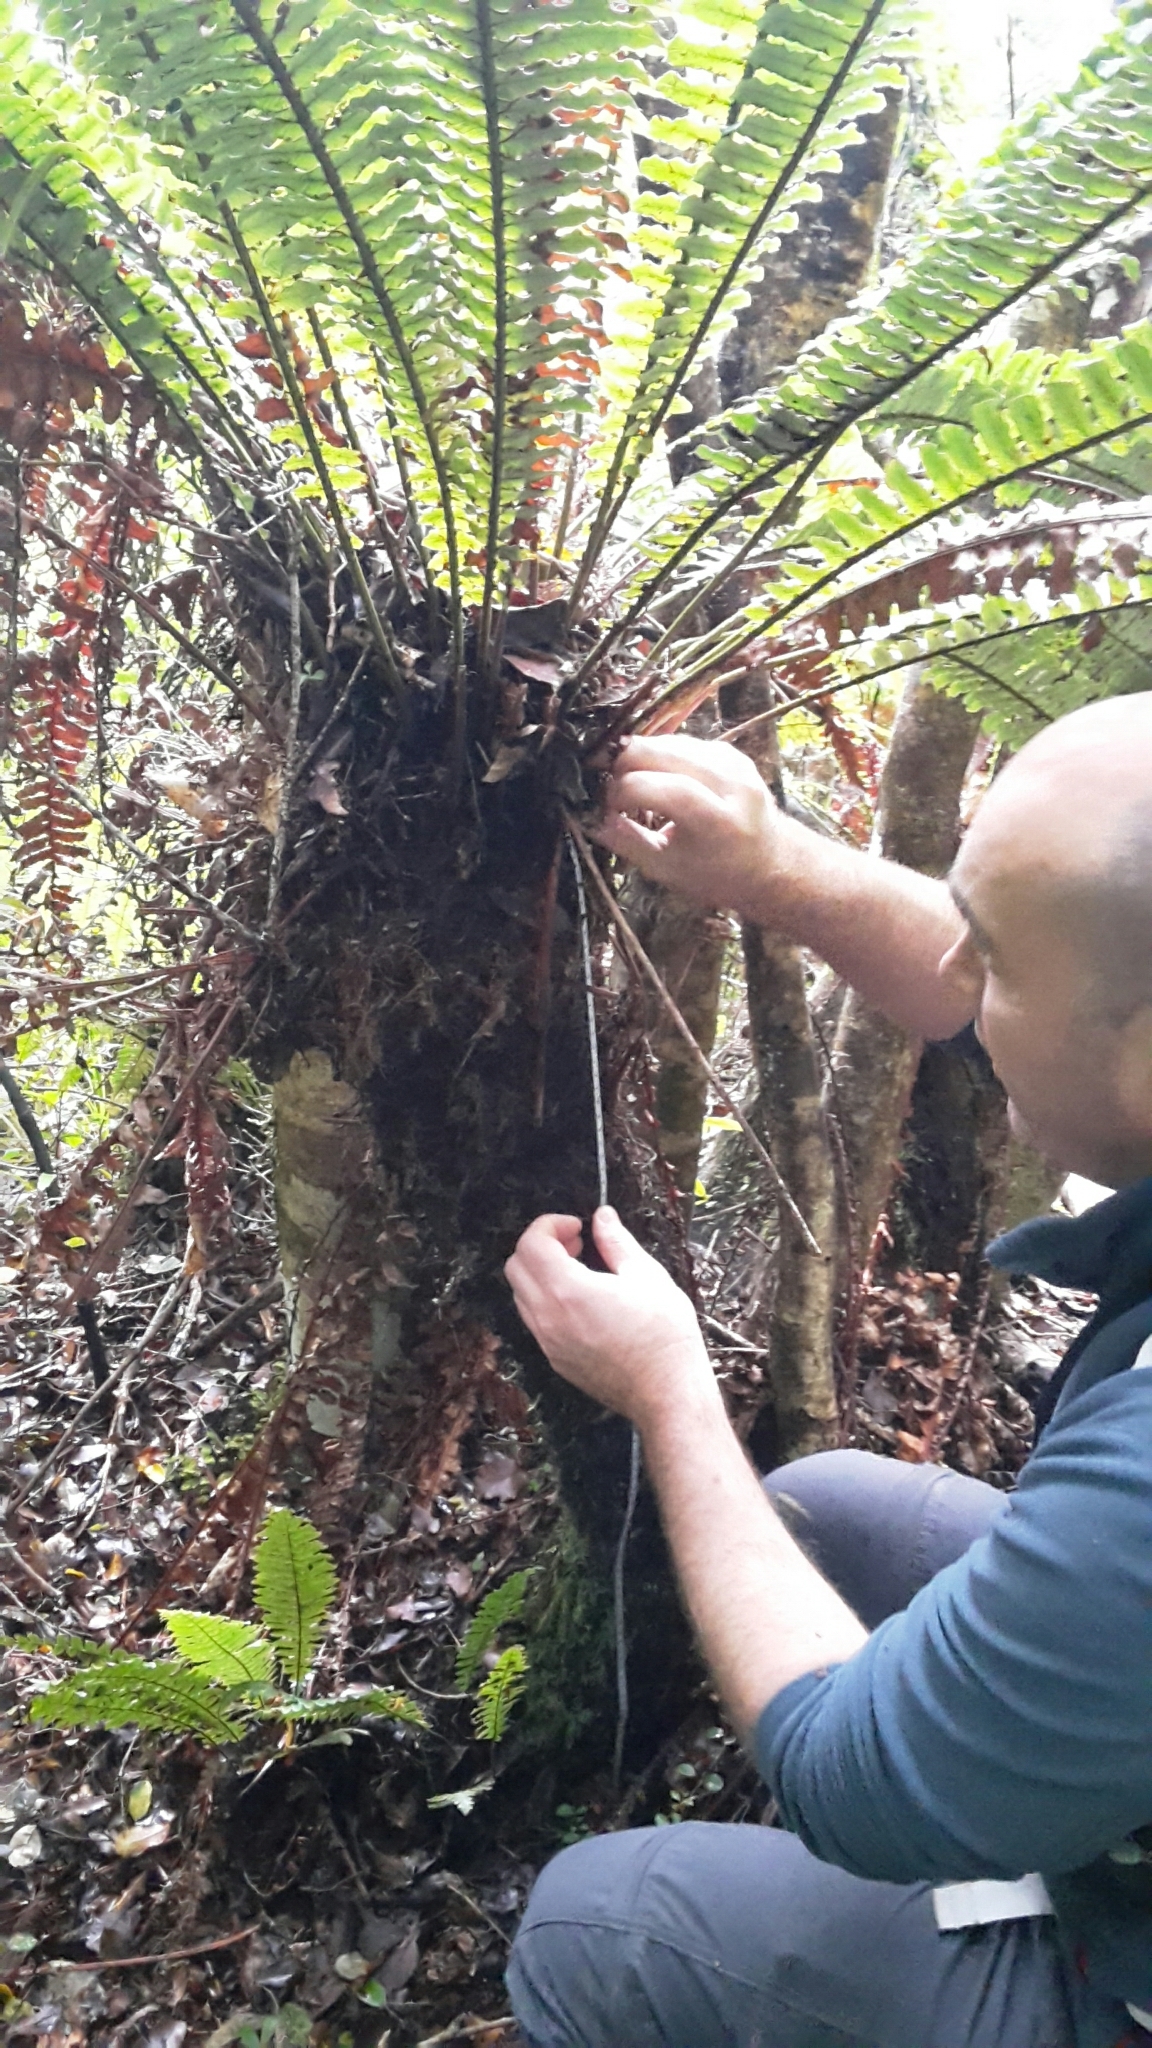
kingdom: Plantae
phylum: Tracheophyta
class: Polypodiopsida
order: Polypodiales
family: Blechnaceae
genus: Lomaria
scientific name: Lomaria discolor
